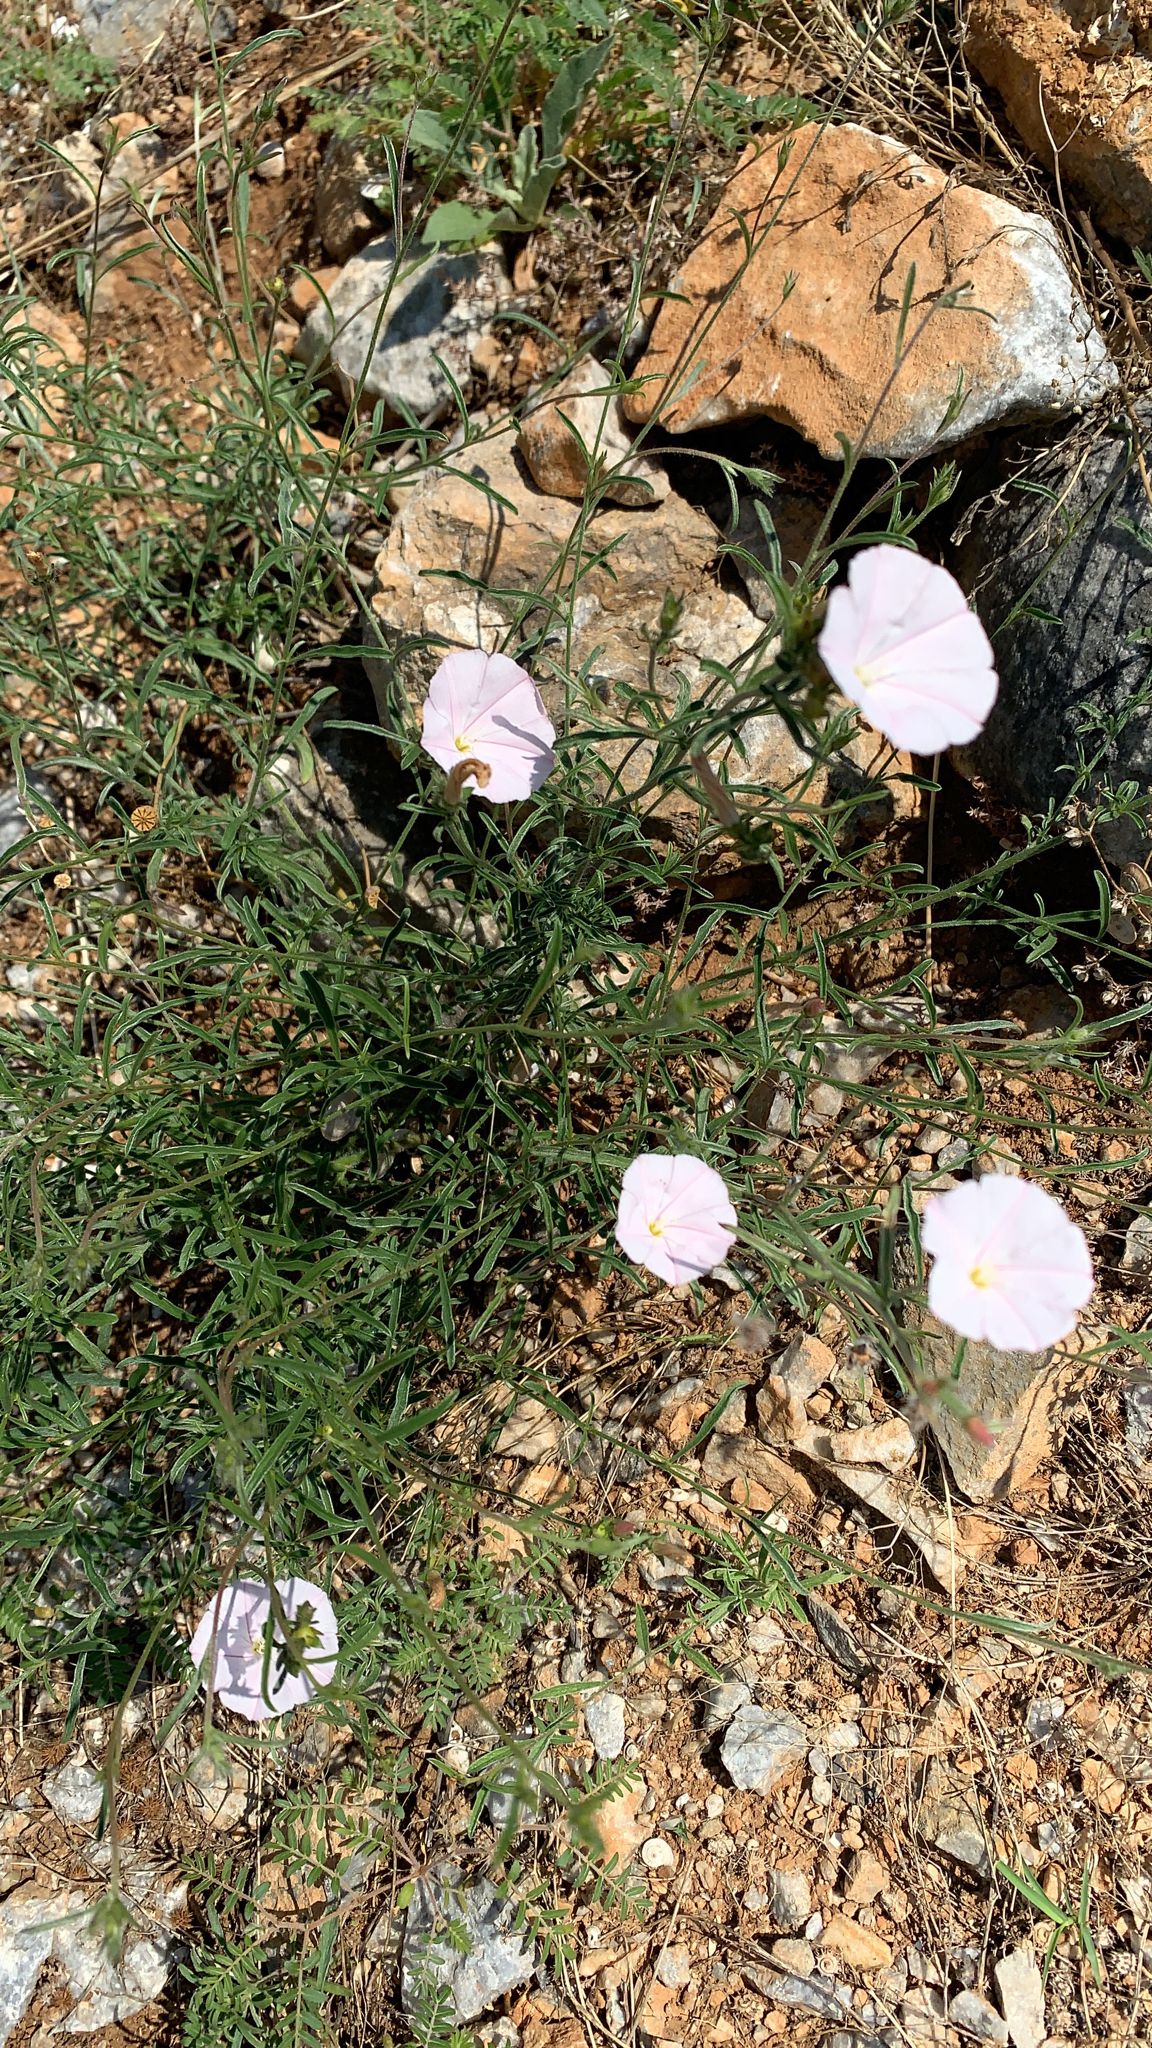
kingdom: Plantae
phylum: Tracheophyta
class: Magnoliopsida
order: Solanales
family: Convolvulaceae
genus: Convolvulus
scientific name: Convolvulus cantabrica
